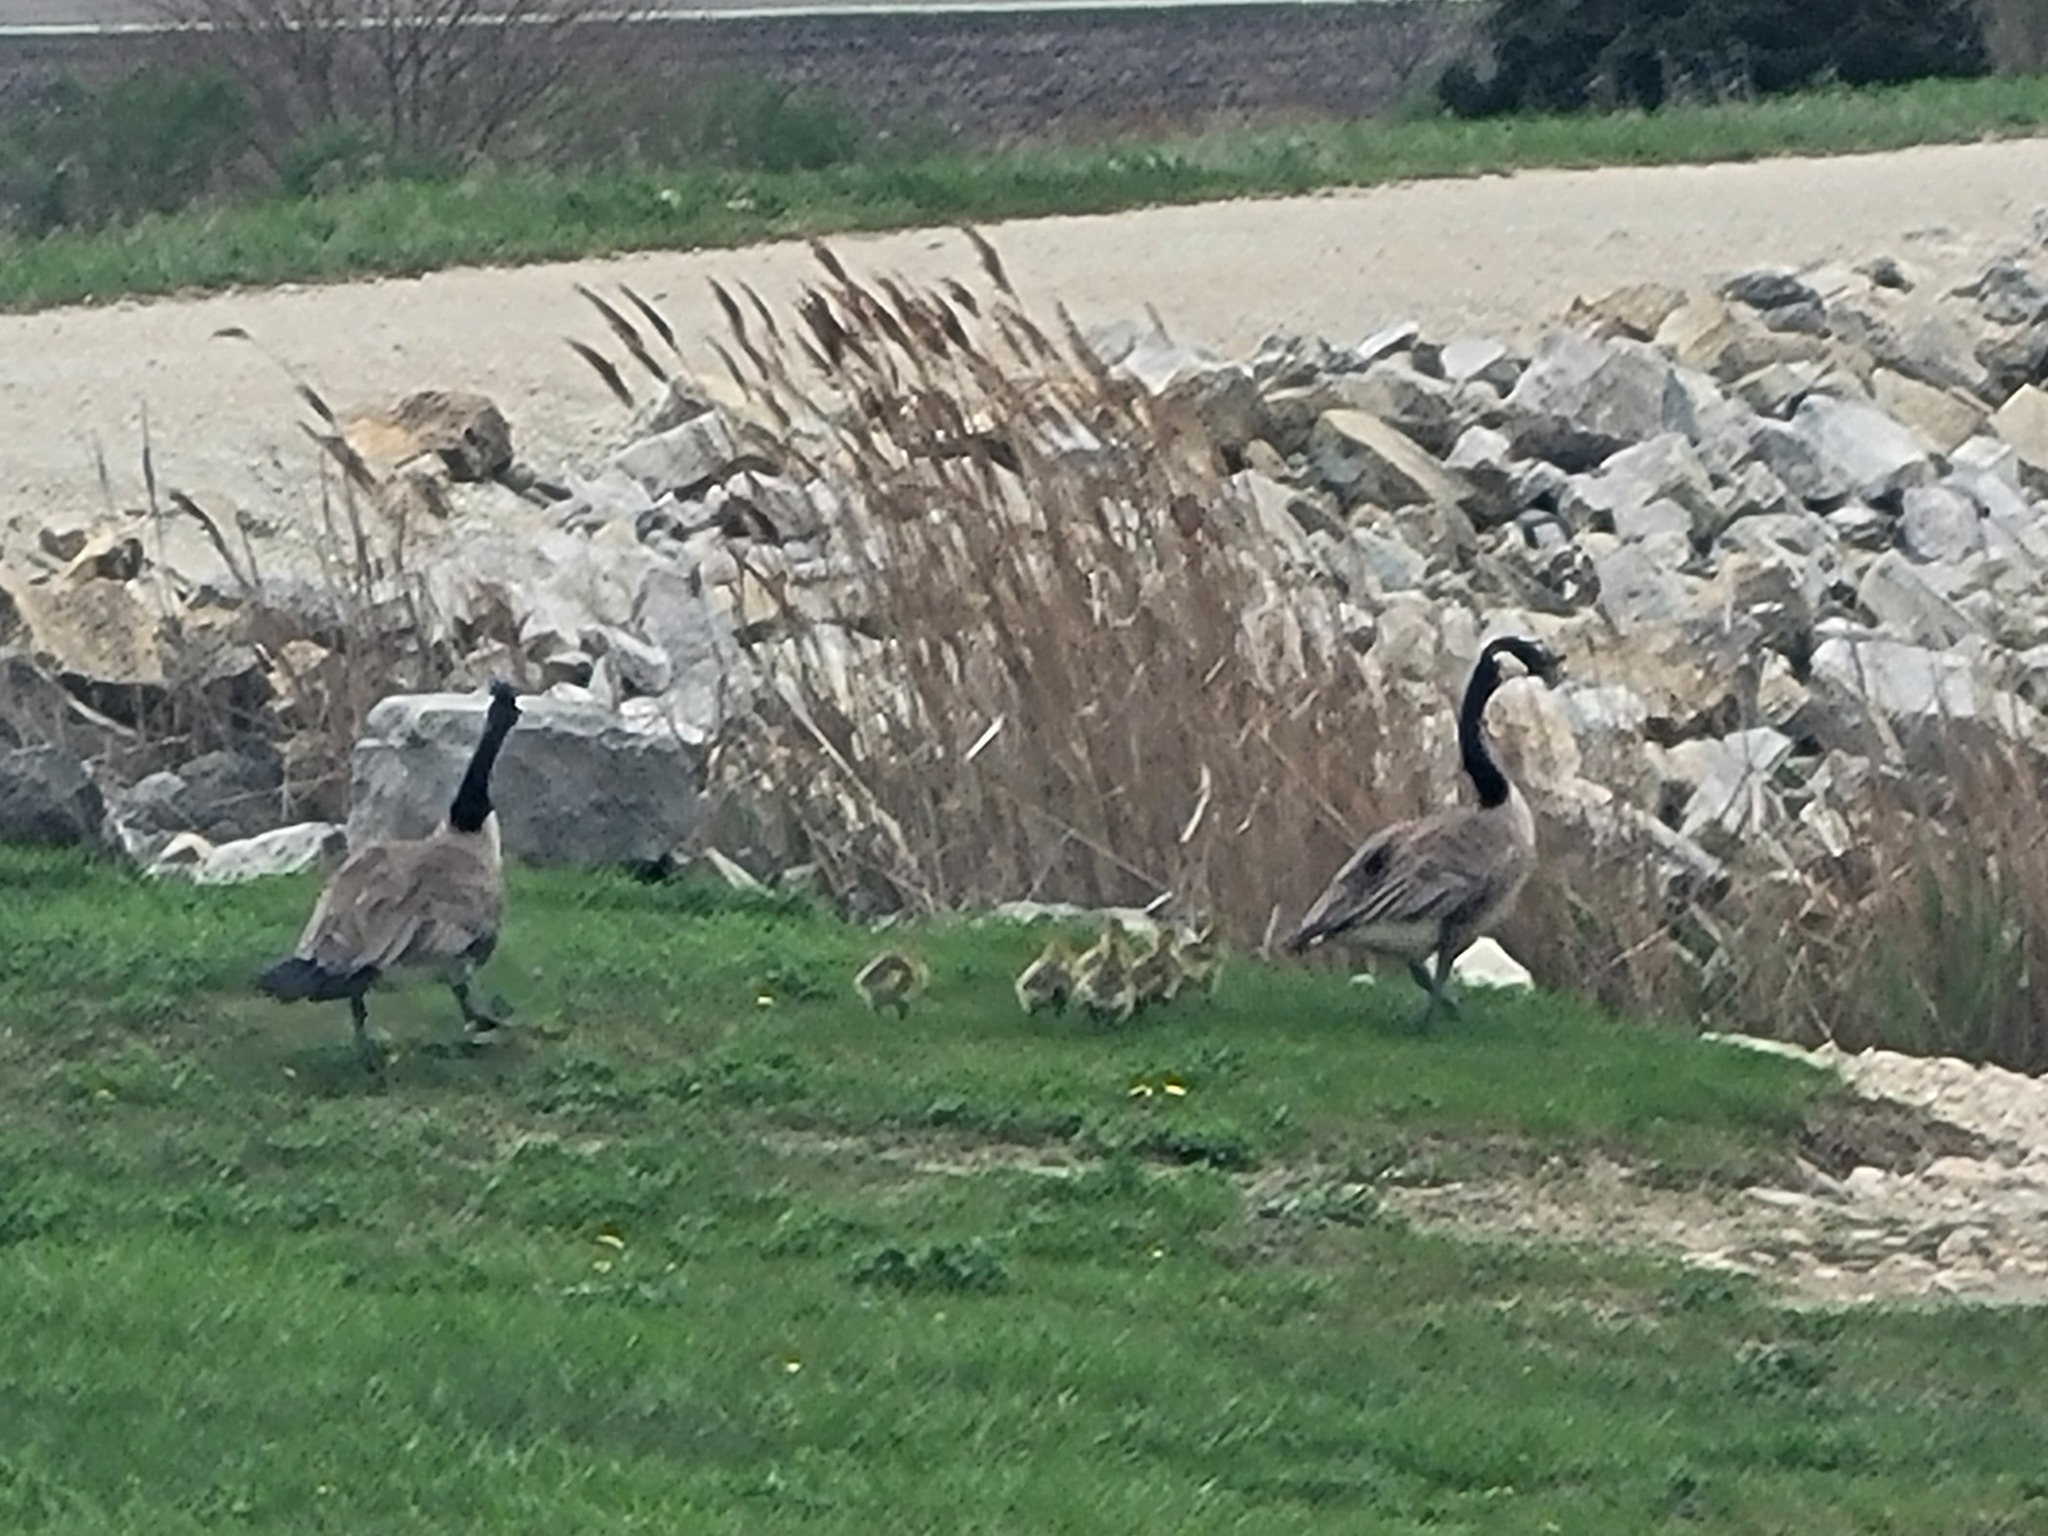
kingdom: Animalia
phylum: Chordata
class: Aves
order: Anseriformes
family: Anatidae
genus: Branta
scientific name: Branta canadensis
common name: Canada goose
